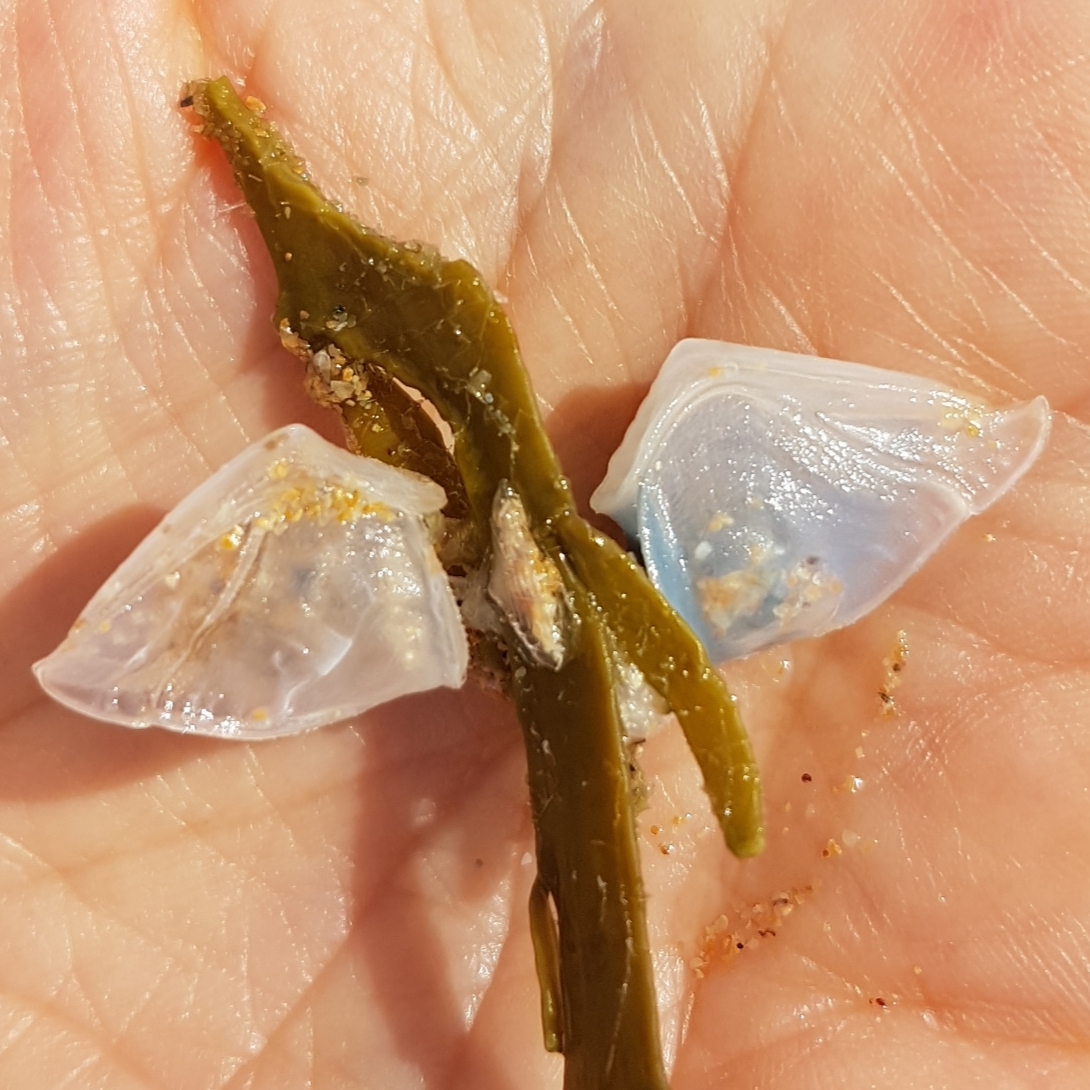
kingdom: Animalia
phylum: Arthropoda
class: Maxillopoda
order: Pedunculata
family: Lepadidae
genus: Dosima
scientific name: Dosima fascicularis
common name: Buoy barnacle
